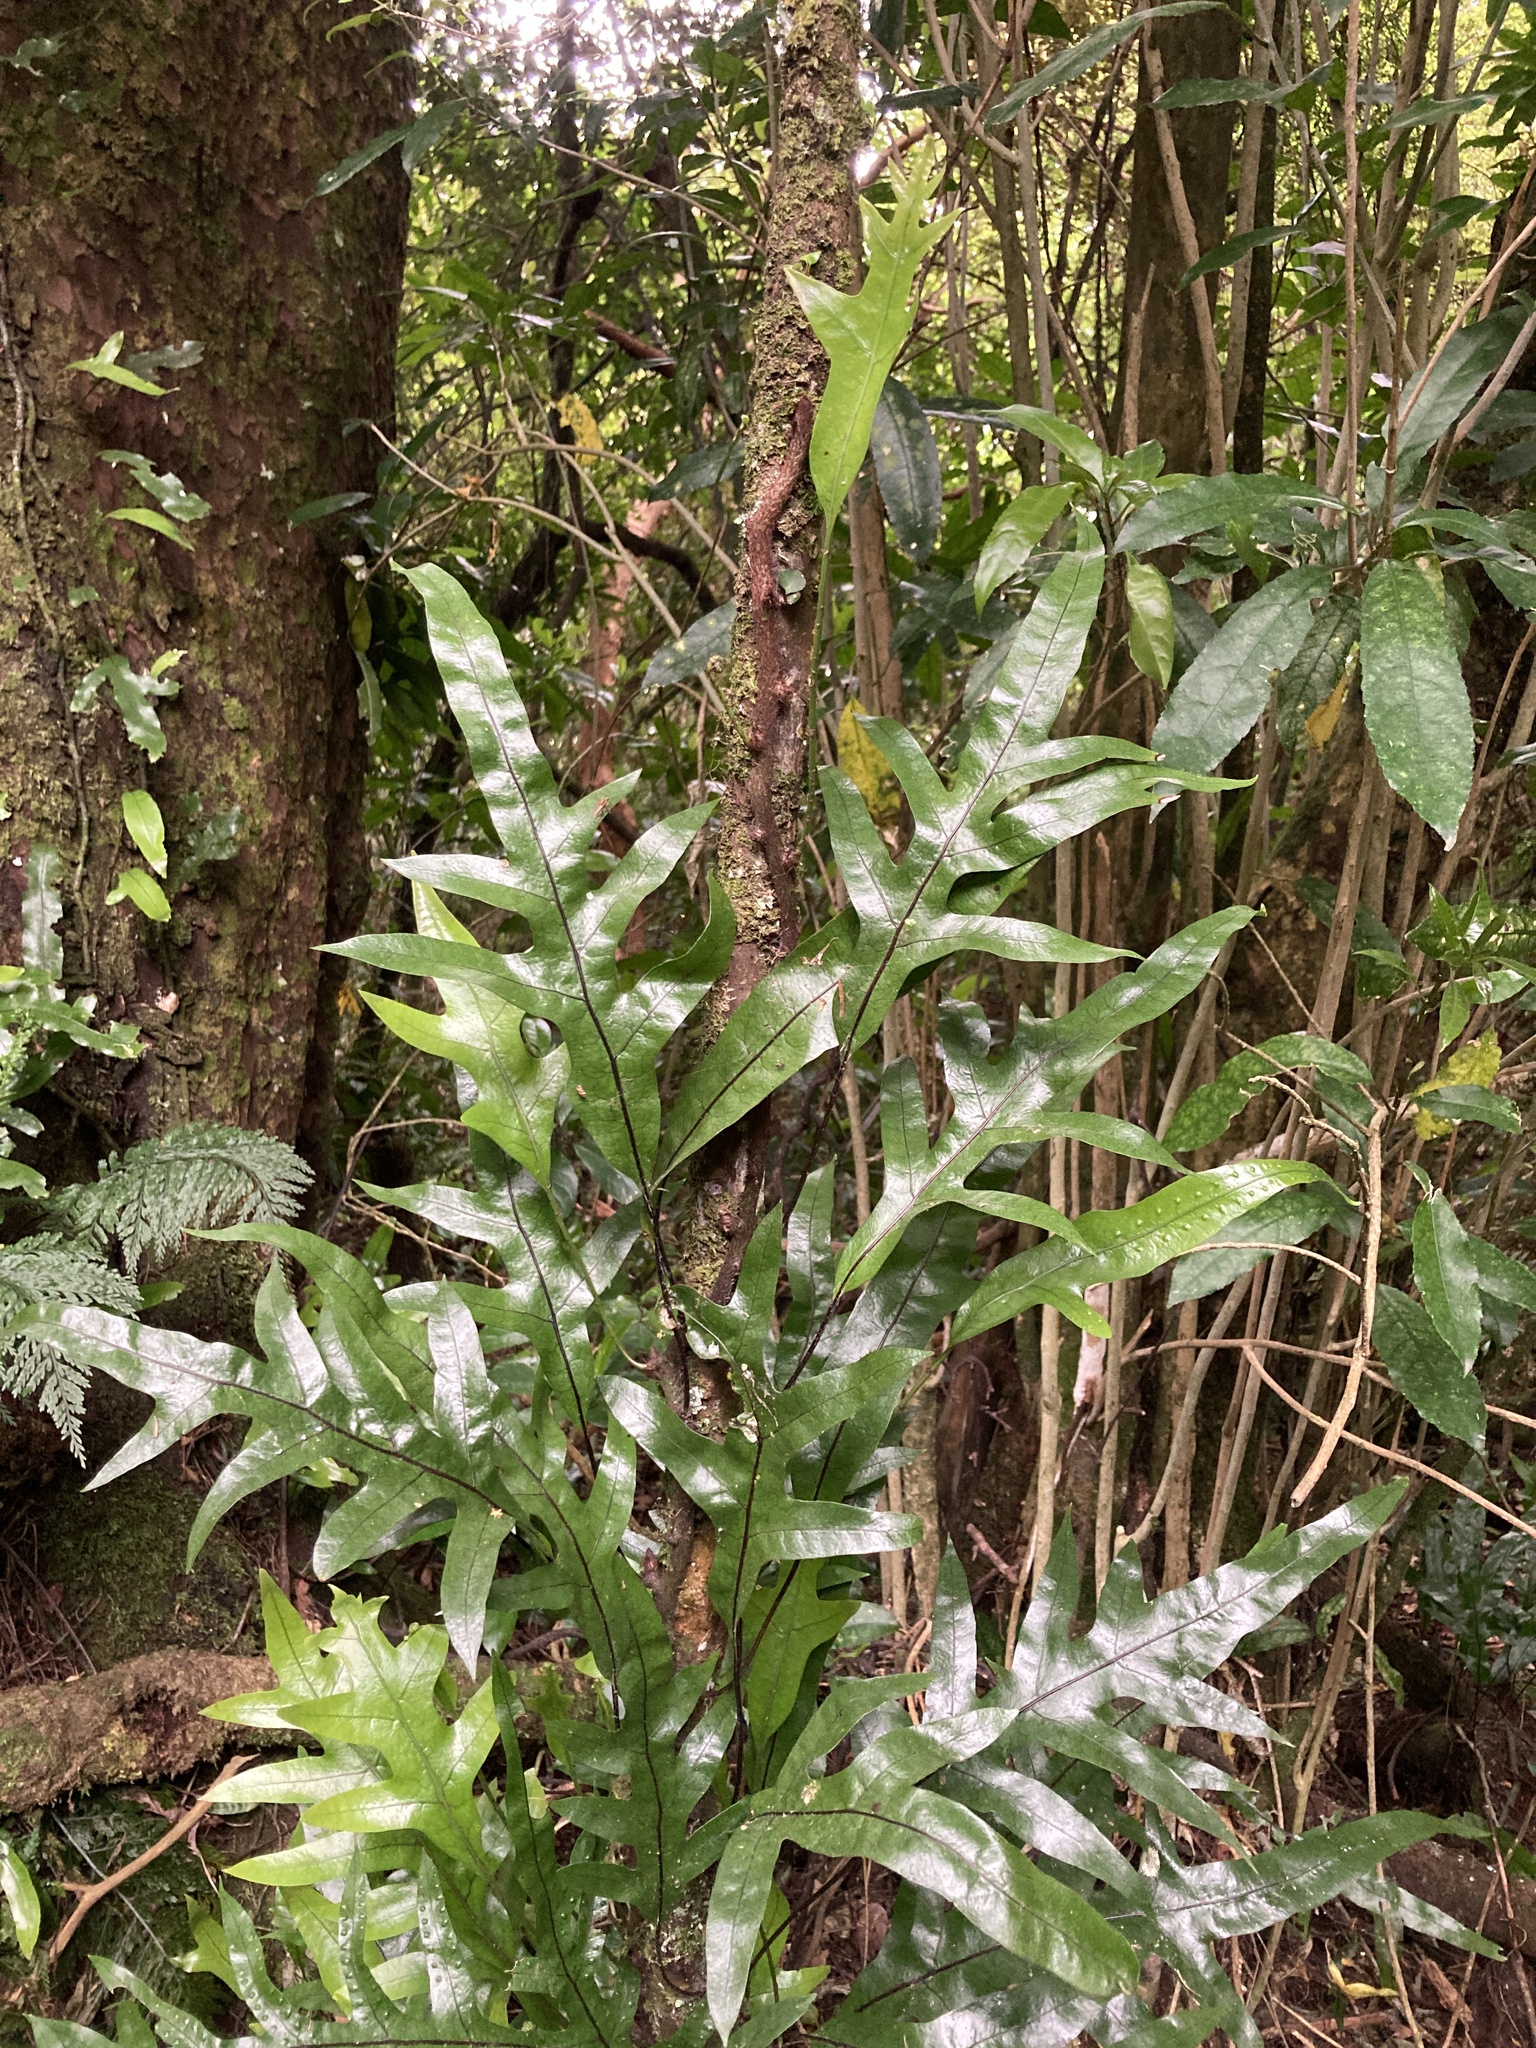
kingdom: Plantae
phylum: Tracheophyta
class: Polypodiopsida
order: Polypodiales
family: Polypodiaceae
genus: Lecanopteris
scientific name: Lecanopteris pustulata
